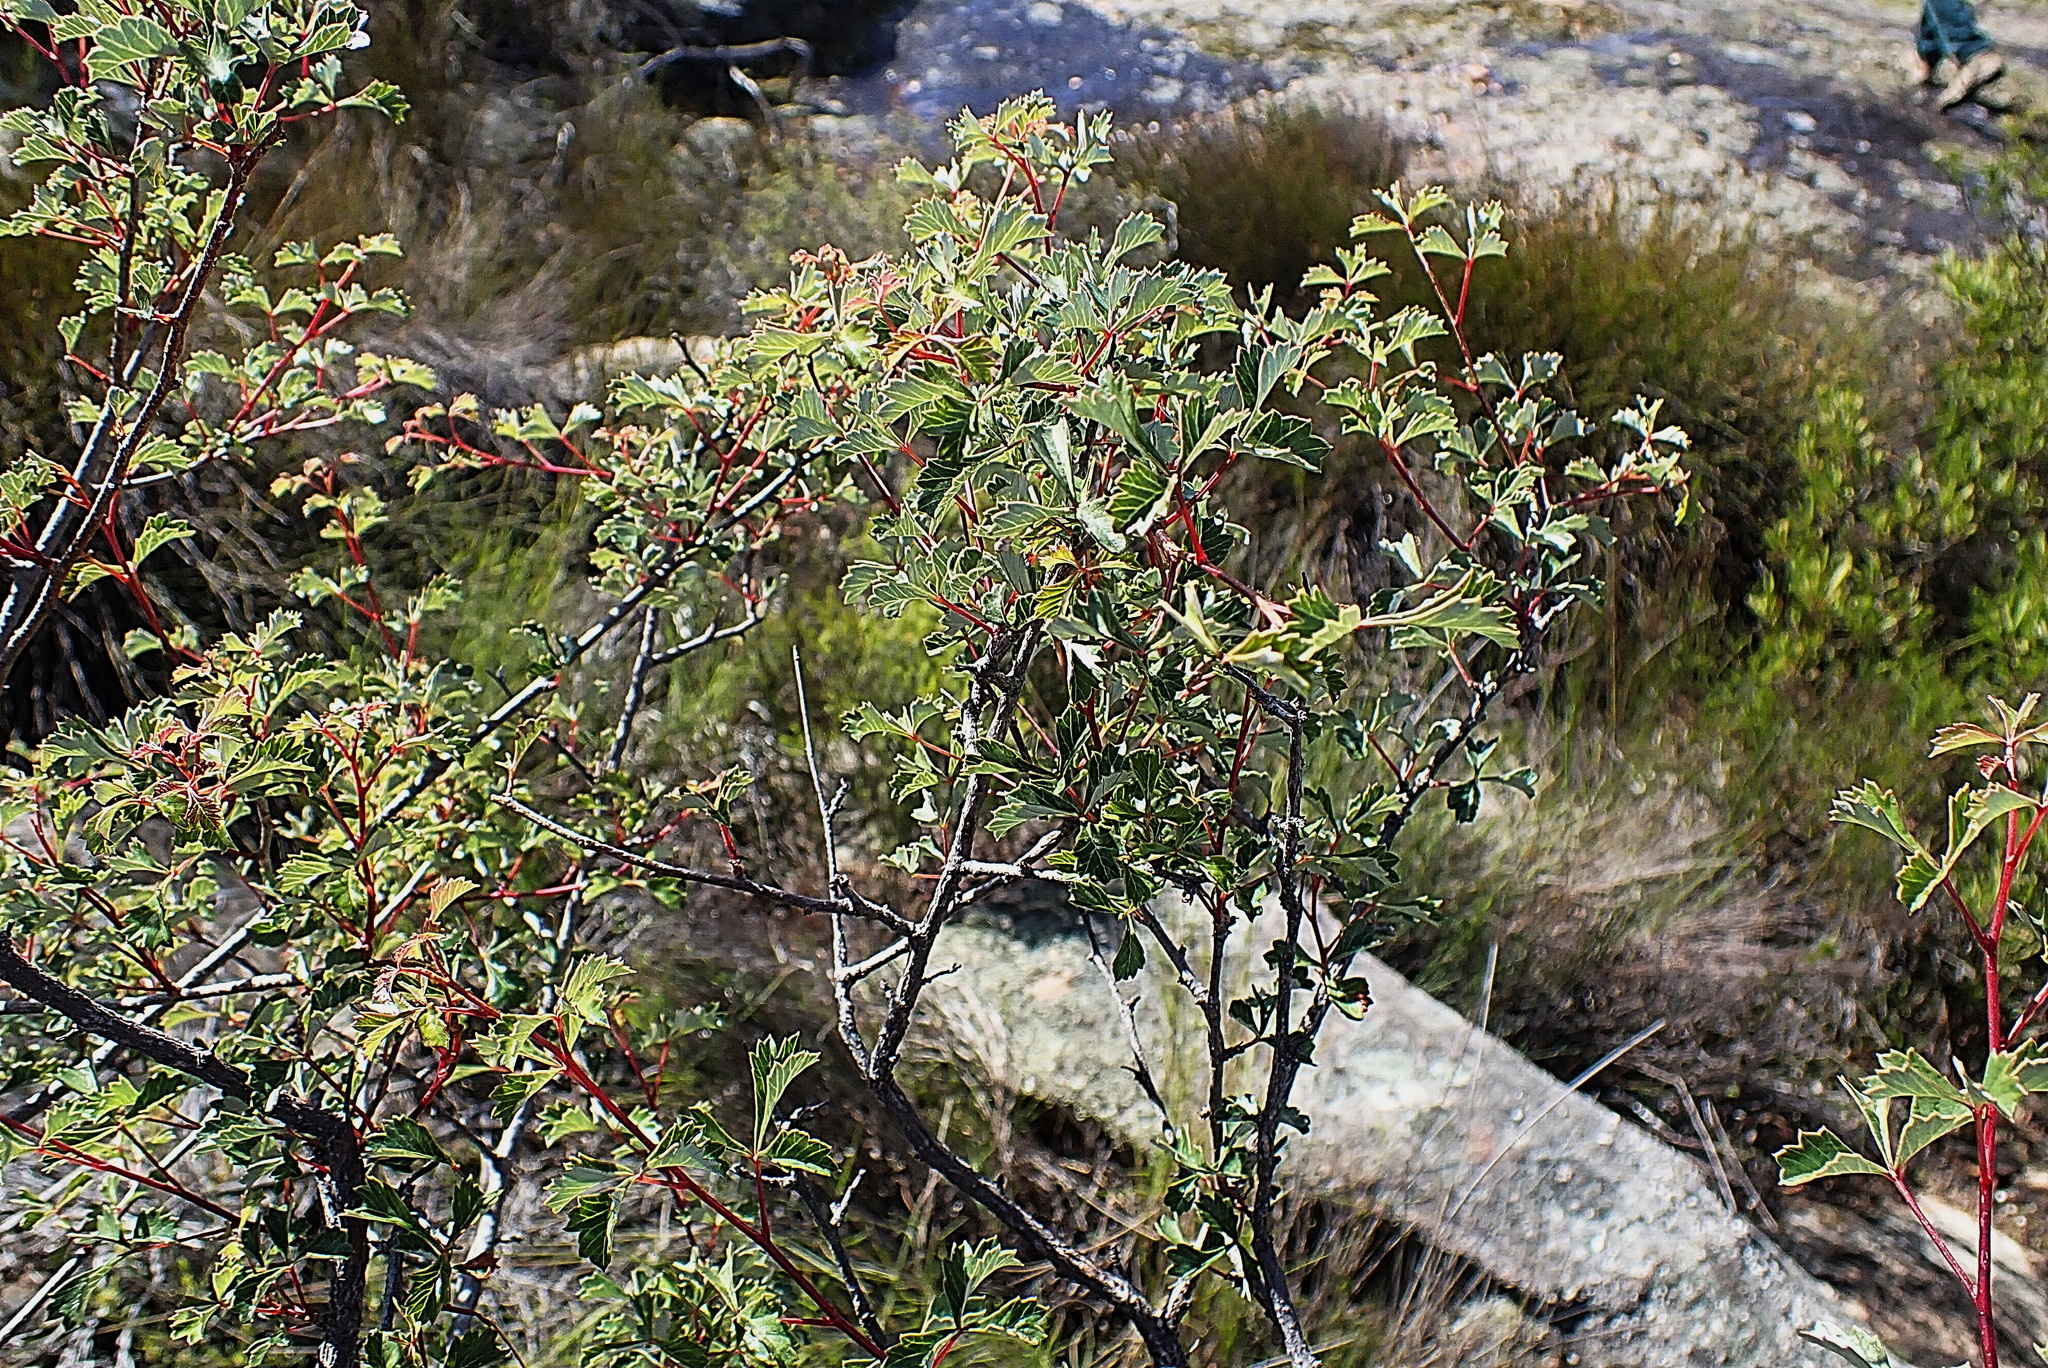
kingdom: Plantae
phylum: Tracheophyta
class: Magnoliopsida
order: Sapindales
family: Anacardiaceae
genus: Searsia
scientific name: Searsia dissecta
